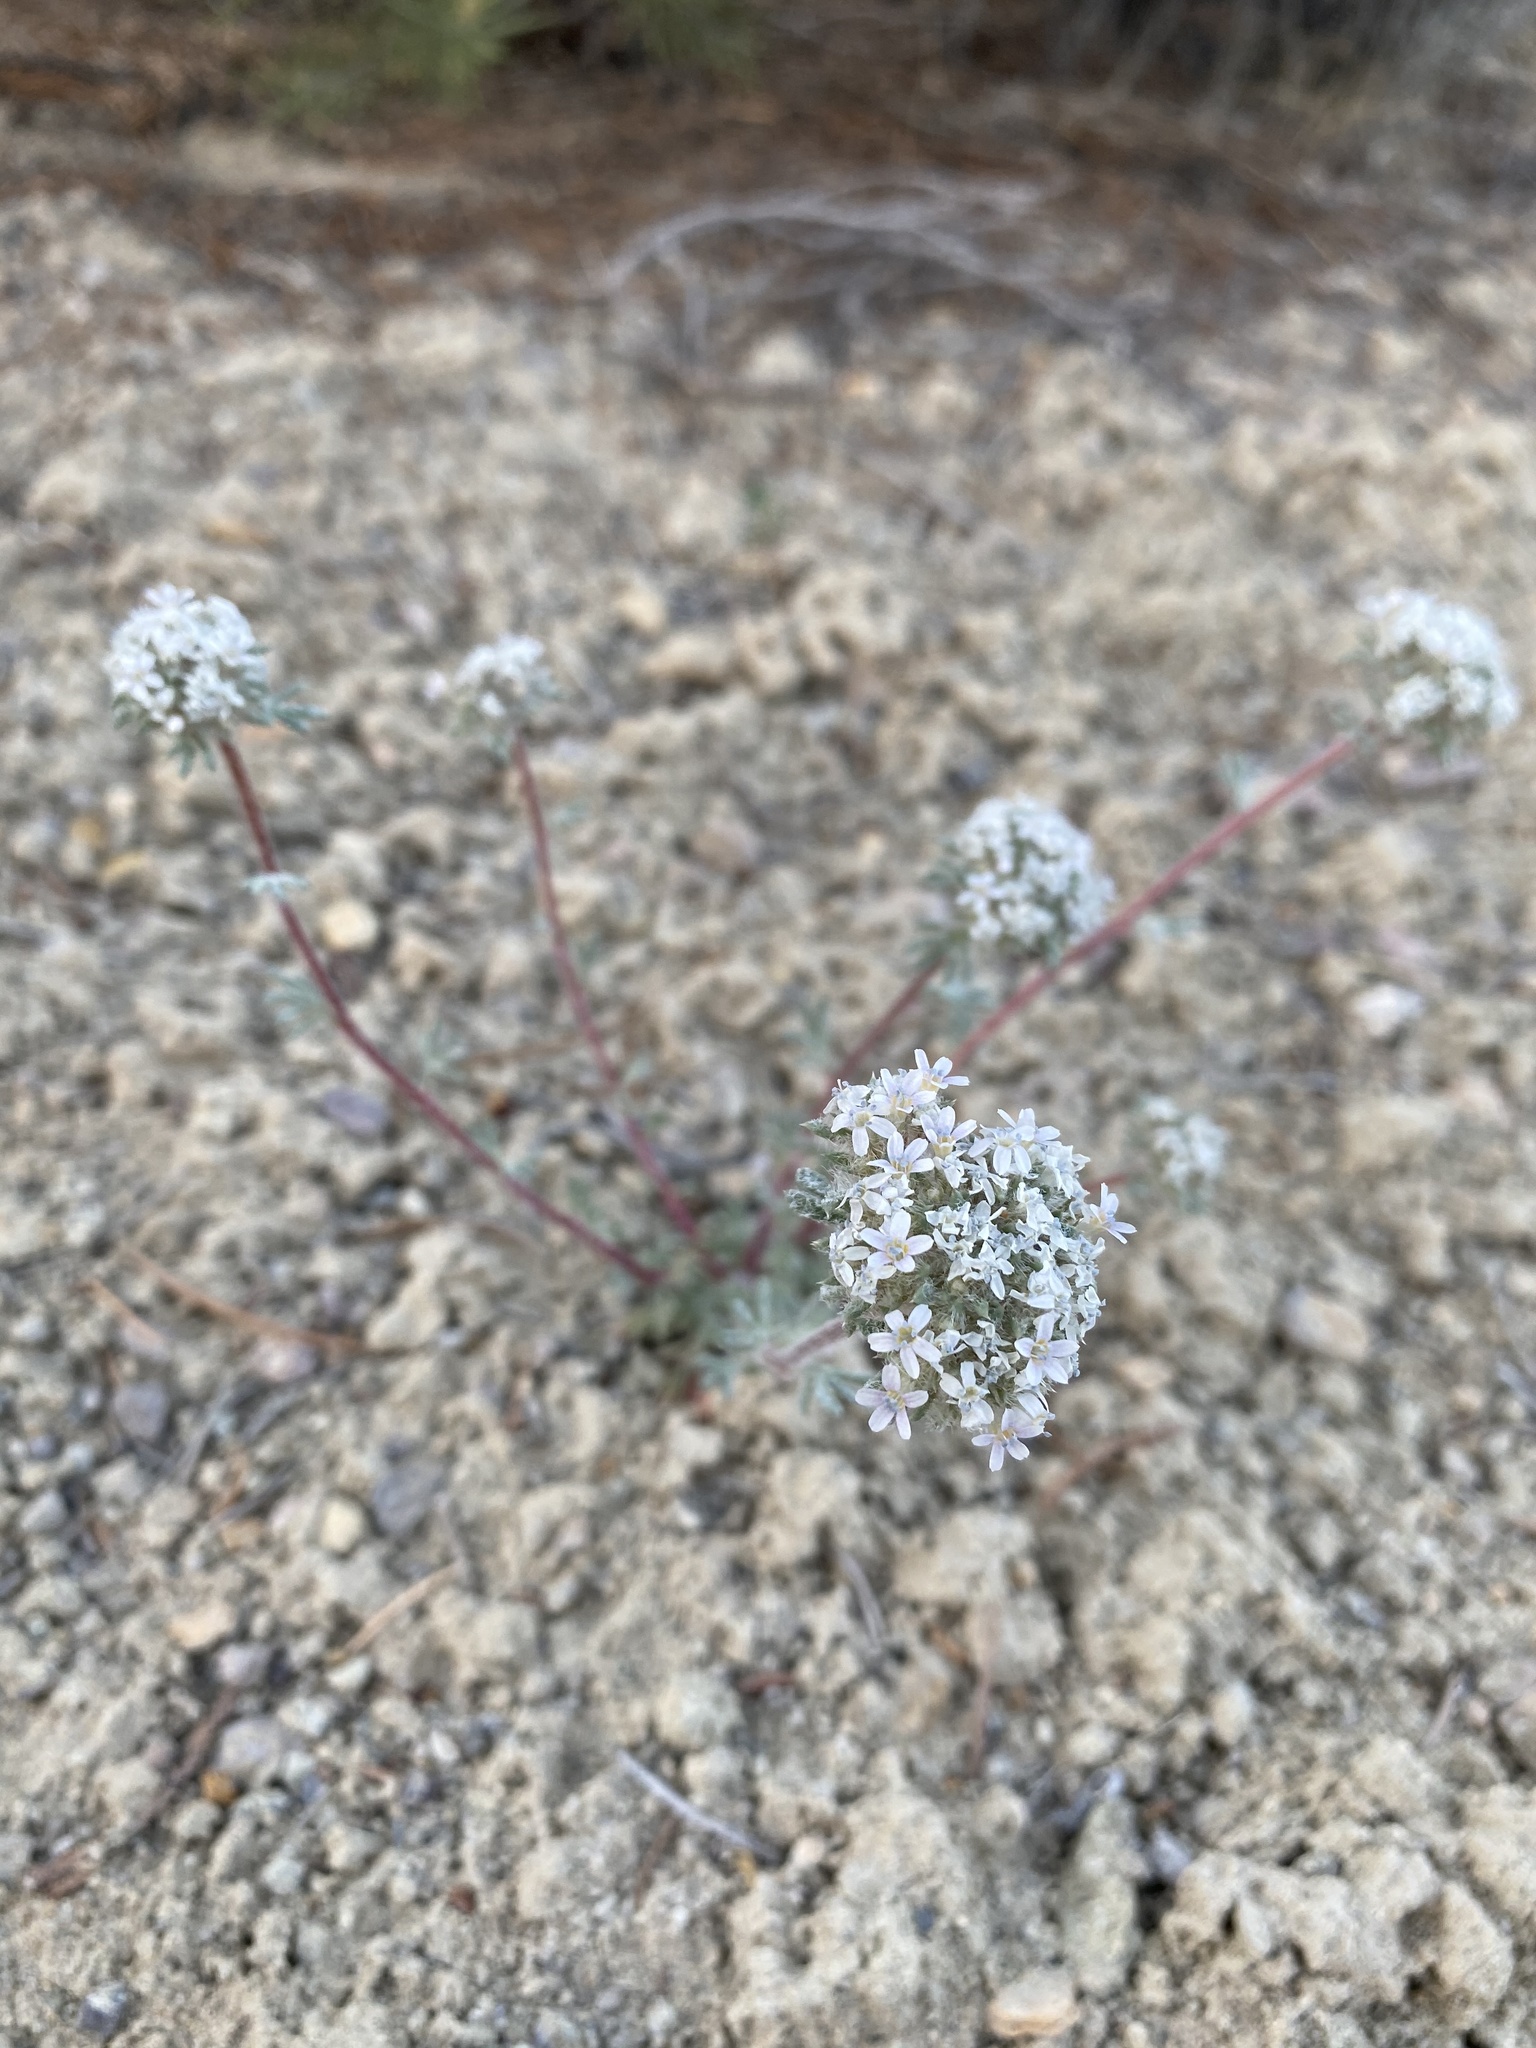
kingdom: Plantae
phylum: Tracheophyta
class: Magnoliopsida
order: Ericales
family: Polemoniaceae
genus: Ipomopsis
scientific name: Ipomopsis congesta
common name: Ball-head gilia
